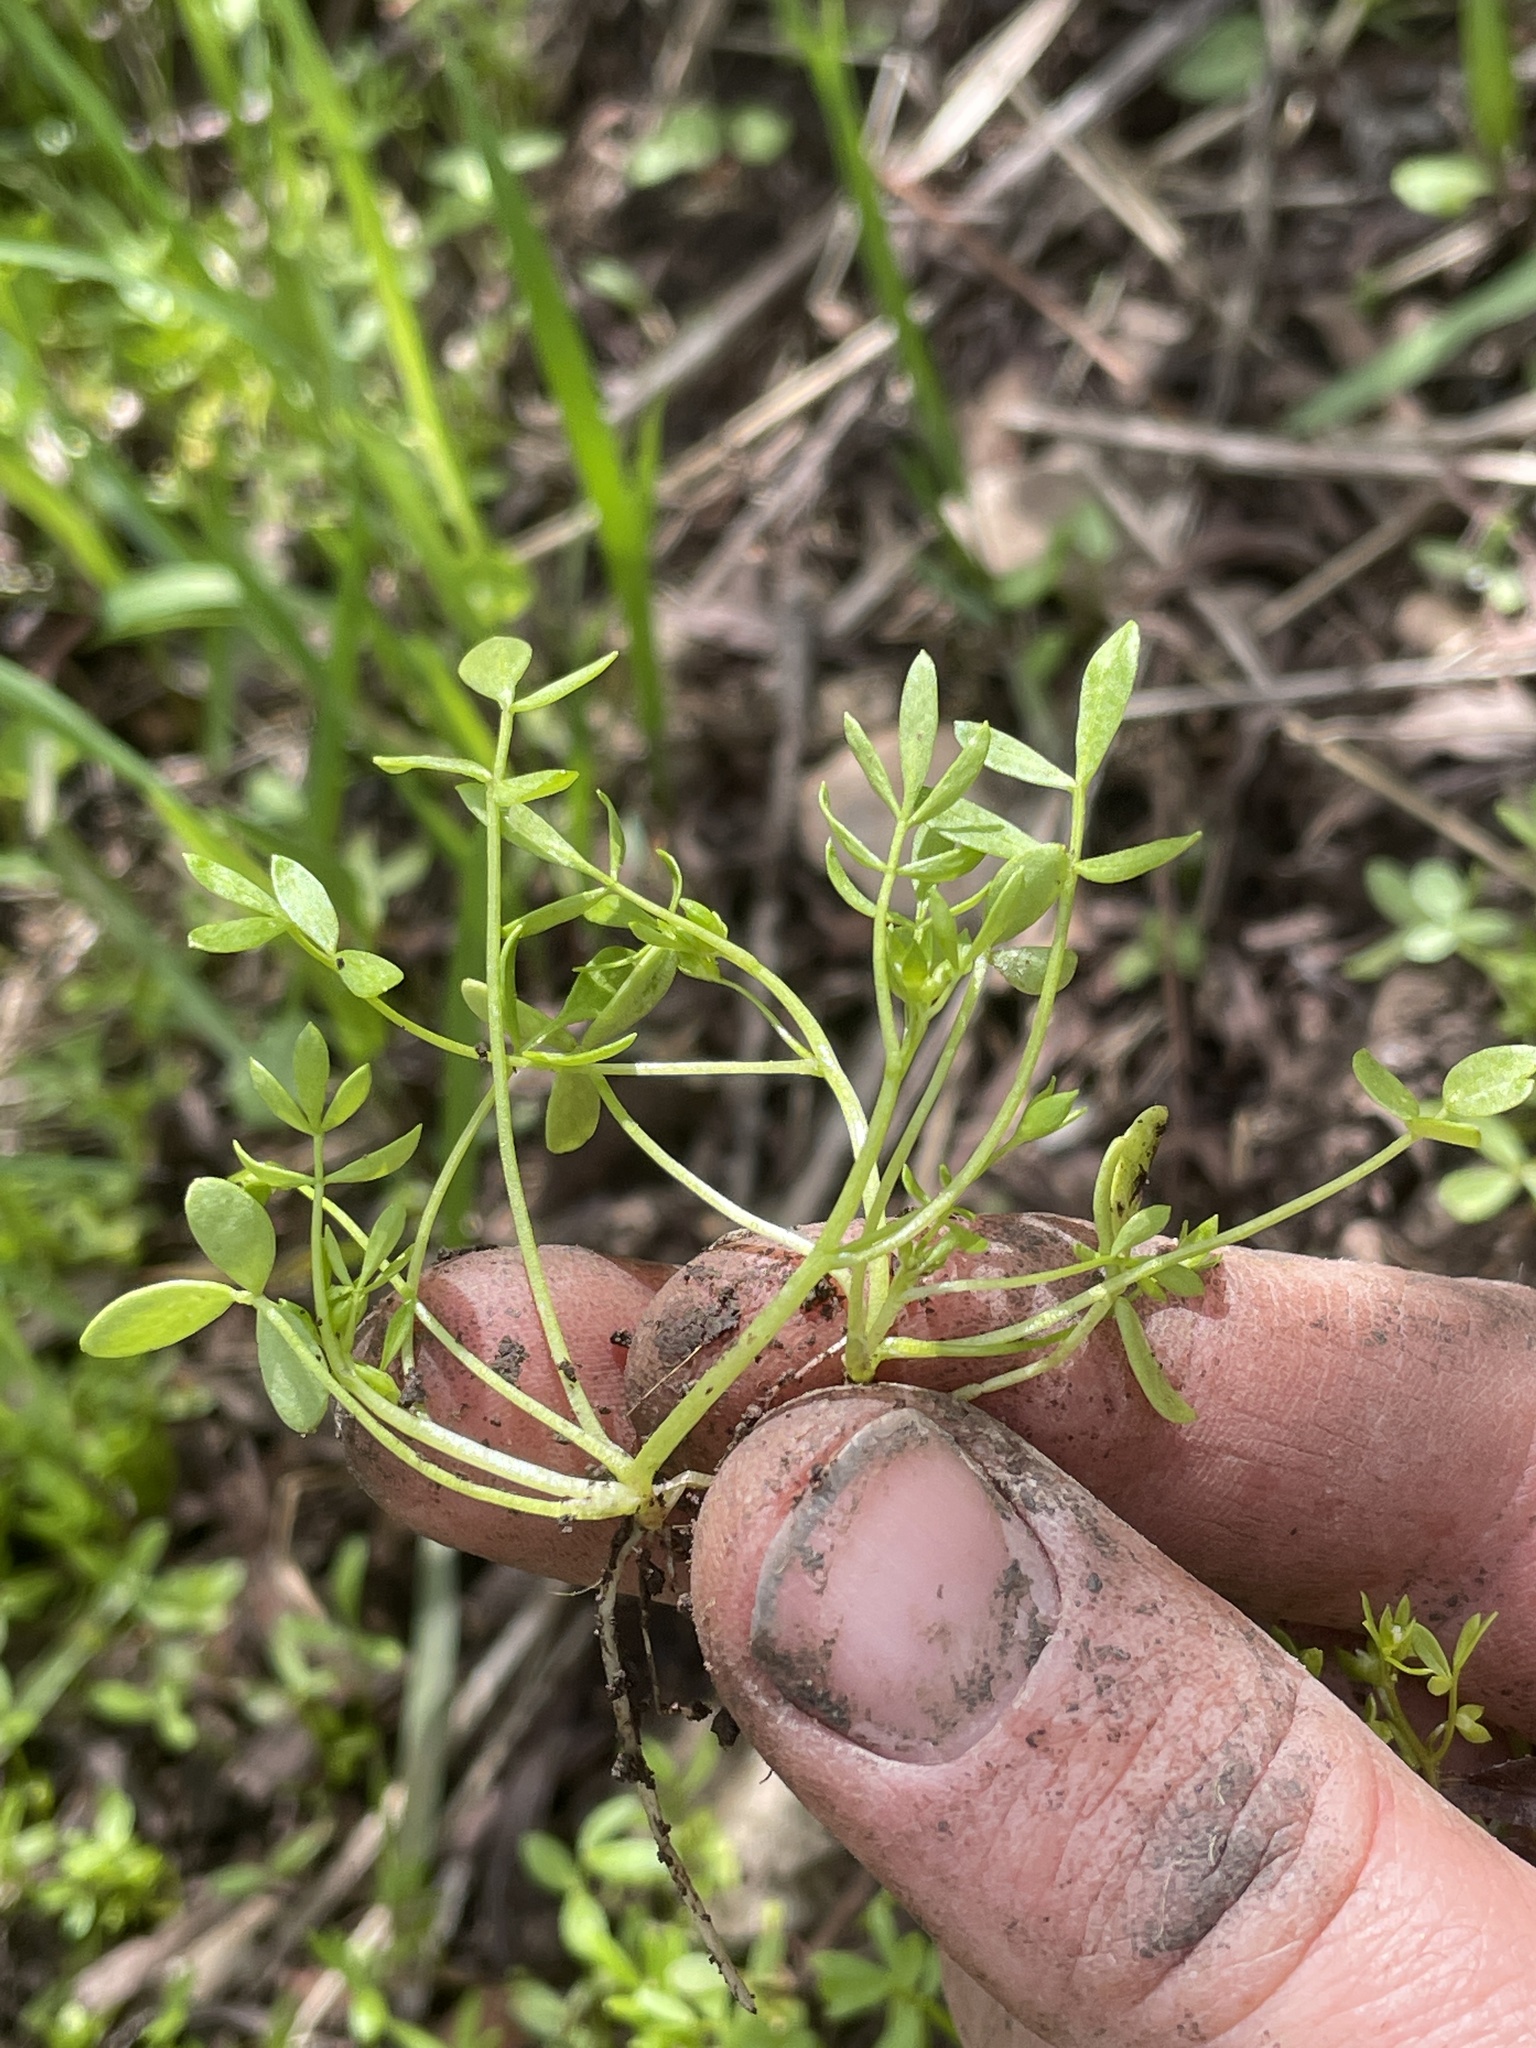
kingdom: Plantae
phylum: Tracheophyta
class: Magnoliopsida
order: Brassicales
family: Limnanthaceae
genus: Floerkea
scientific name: Floerkea proserpinacoides
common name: False mermaid
